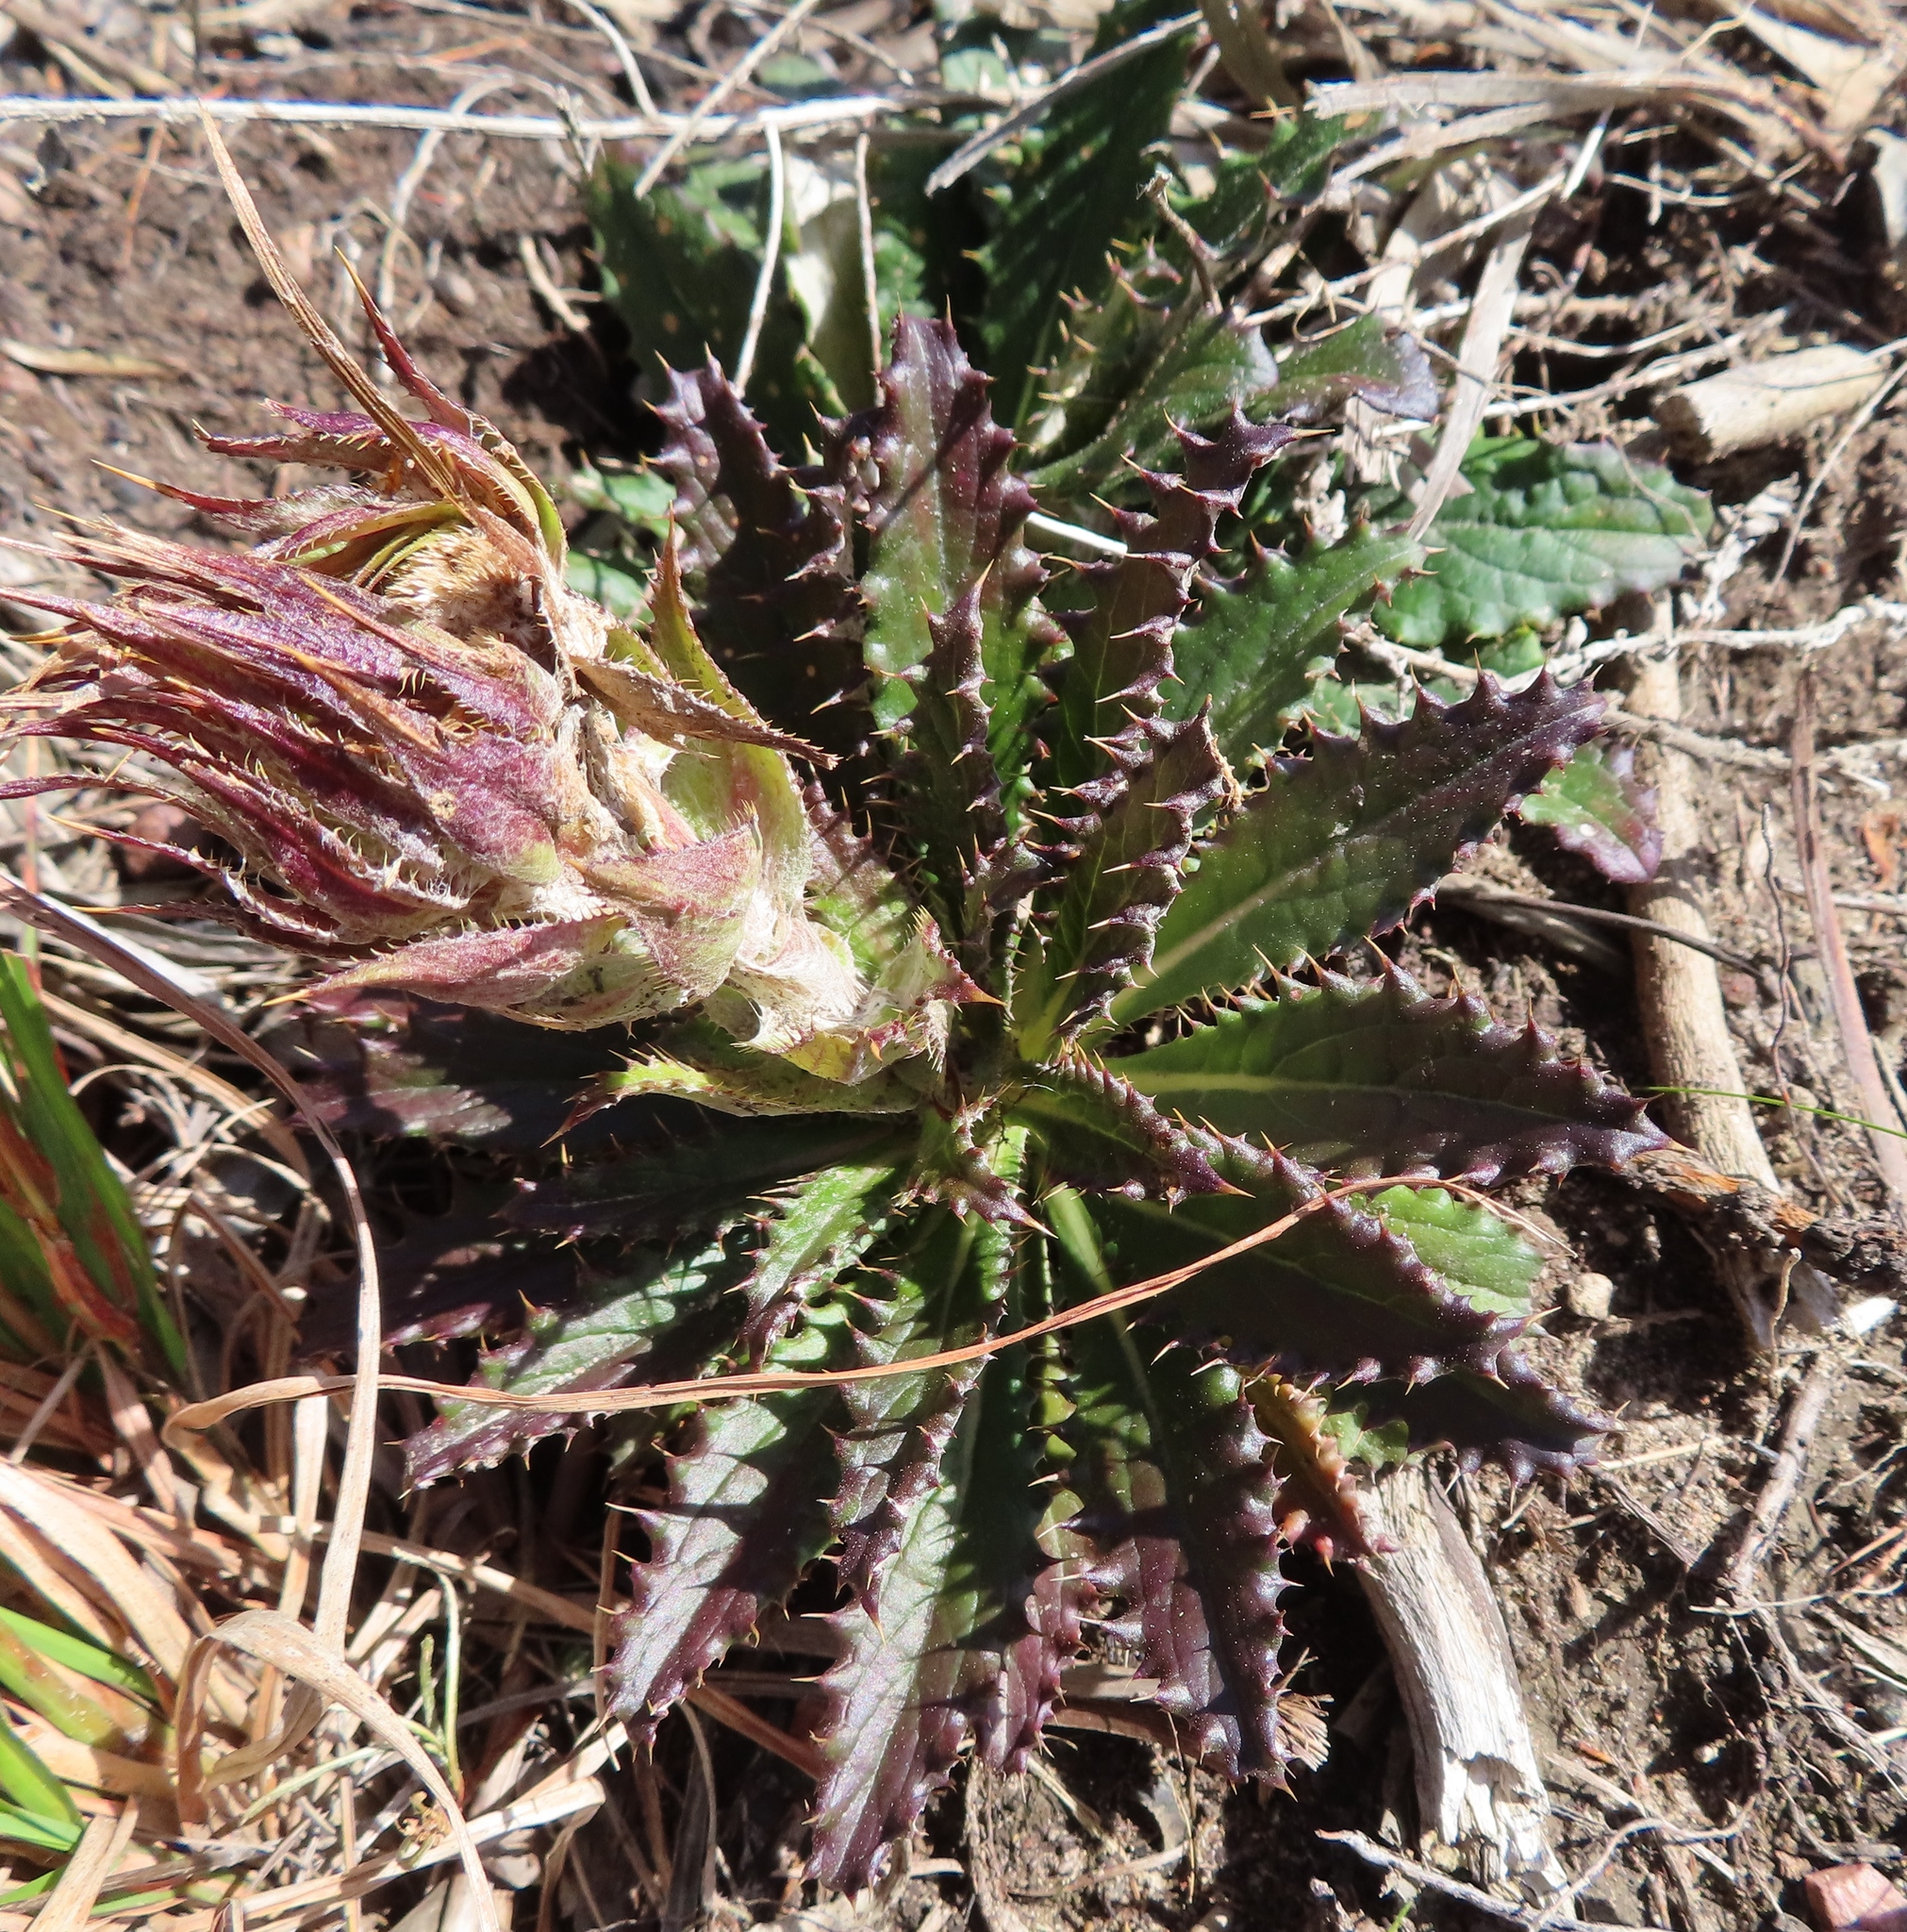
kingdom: Plantae
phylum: Tracheophyta
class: Magnoliopsida
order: Asterales
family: Asteraceae
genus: Berkheya
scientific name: Berkheya armata
